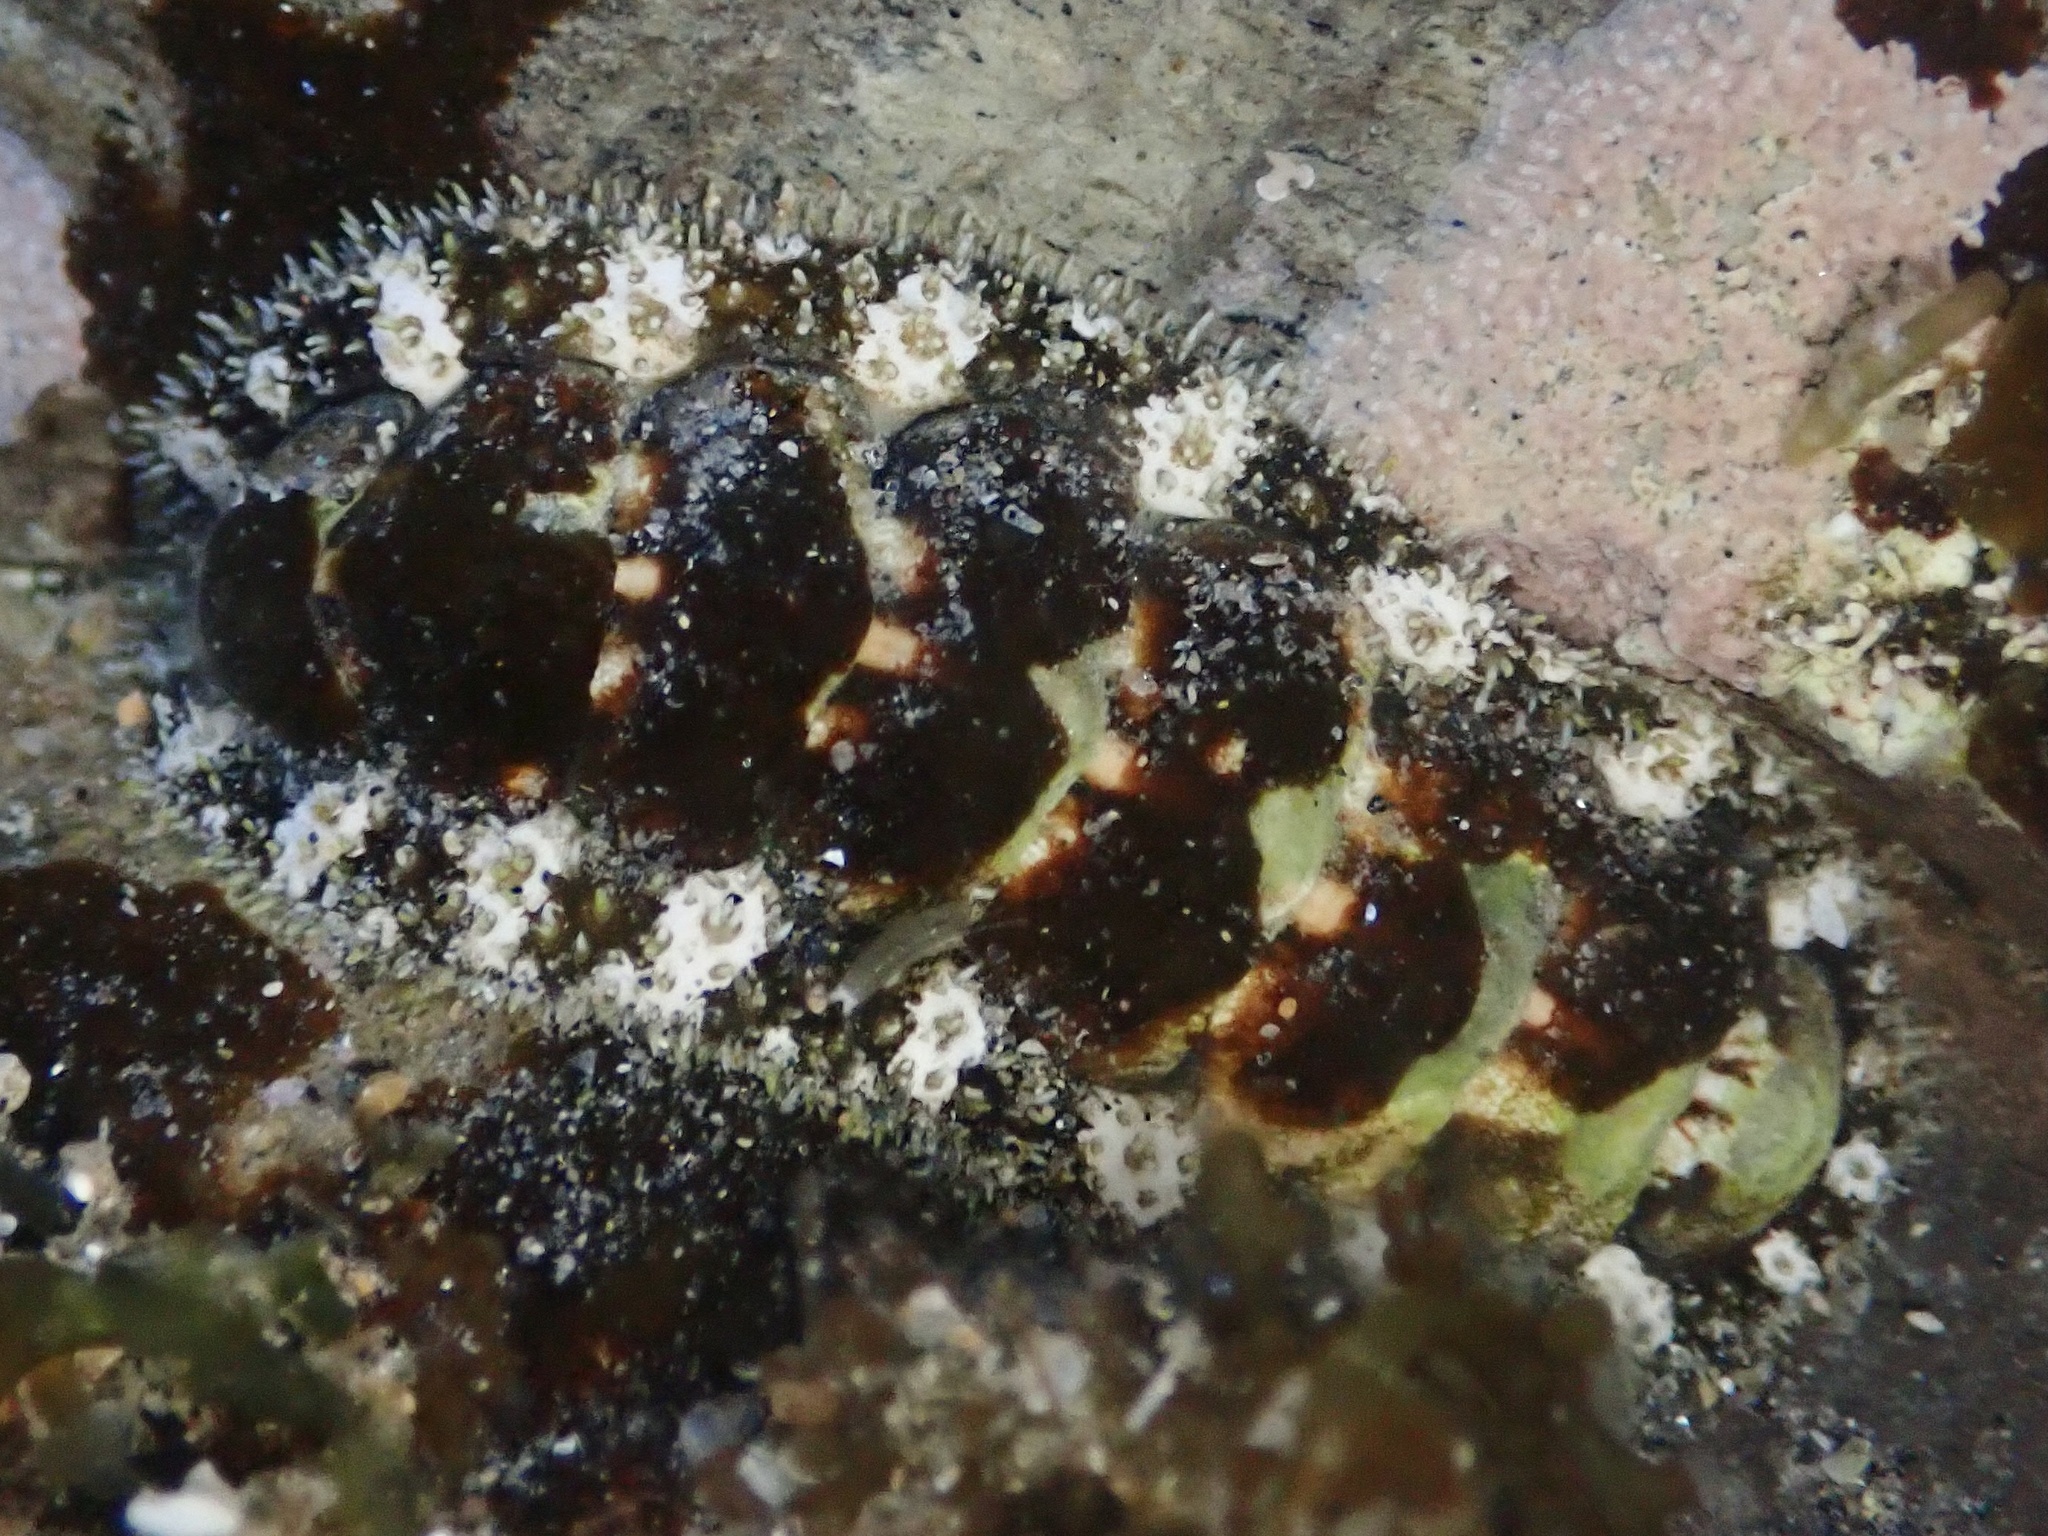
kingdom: Animalia
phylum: Mollusca
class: Polyplacophora
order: Chitonida
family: Tonicellidae
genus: Nuttallina
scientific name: Nuttallina californica
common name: California nuttall chiton
